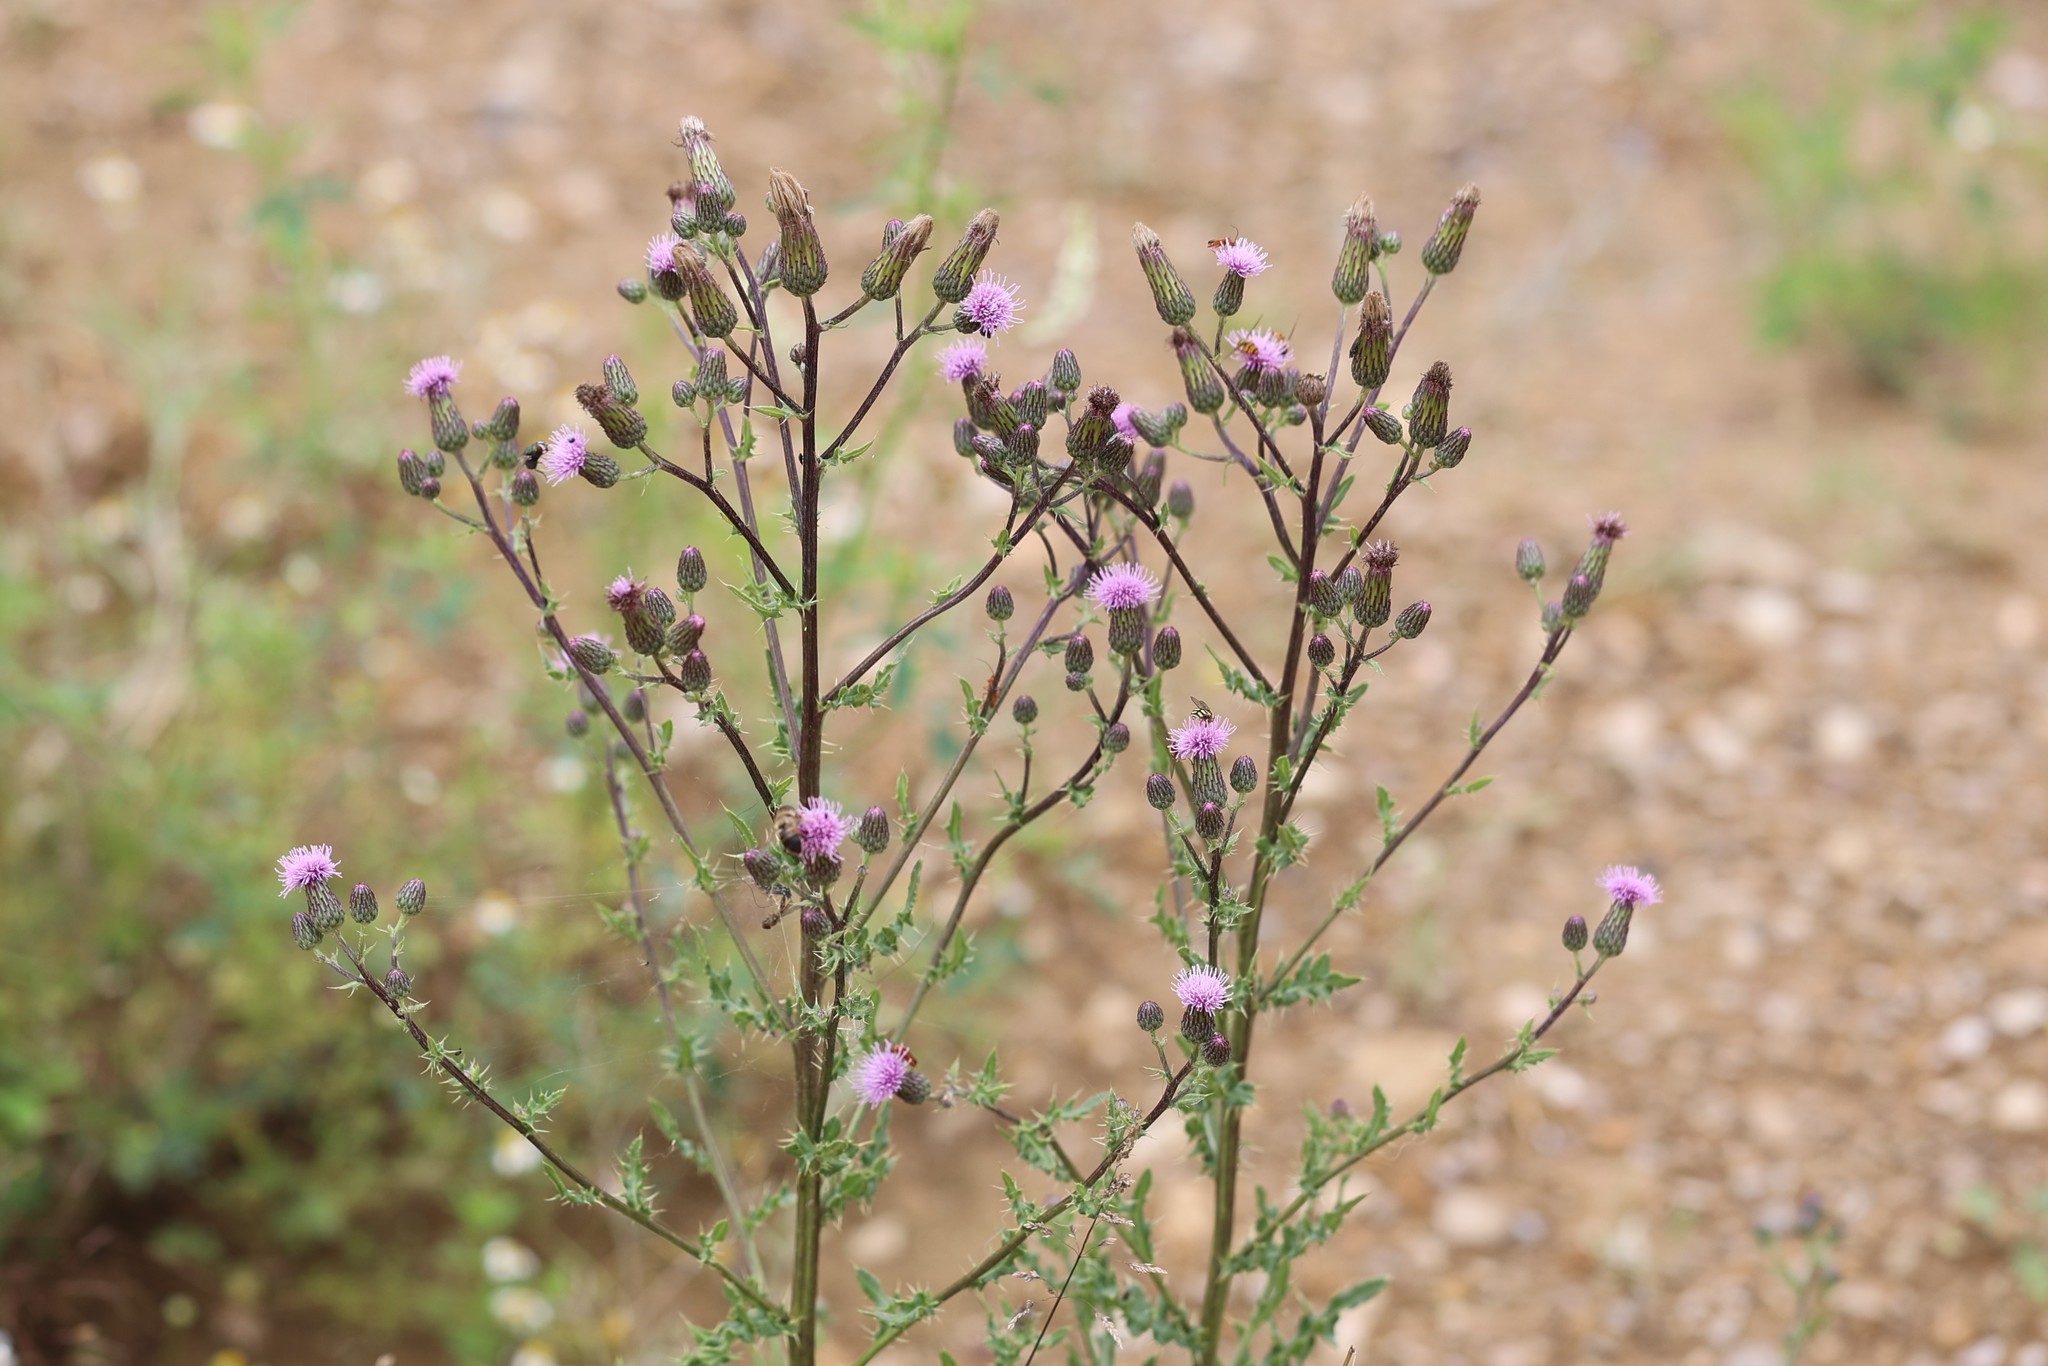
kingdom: Plantae
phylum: Tracheophyta
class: Magnoliopsida
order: Asterales
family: Asteraceae
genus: Cirsium
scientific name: Cirsium arvense
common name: Creeping thistle
